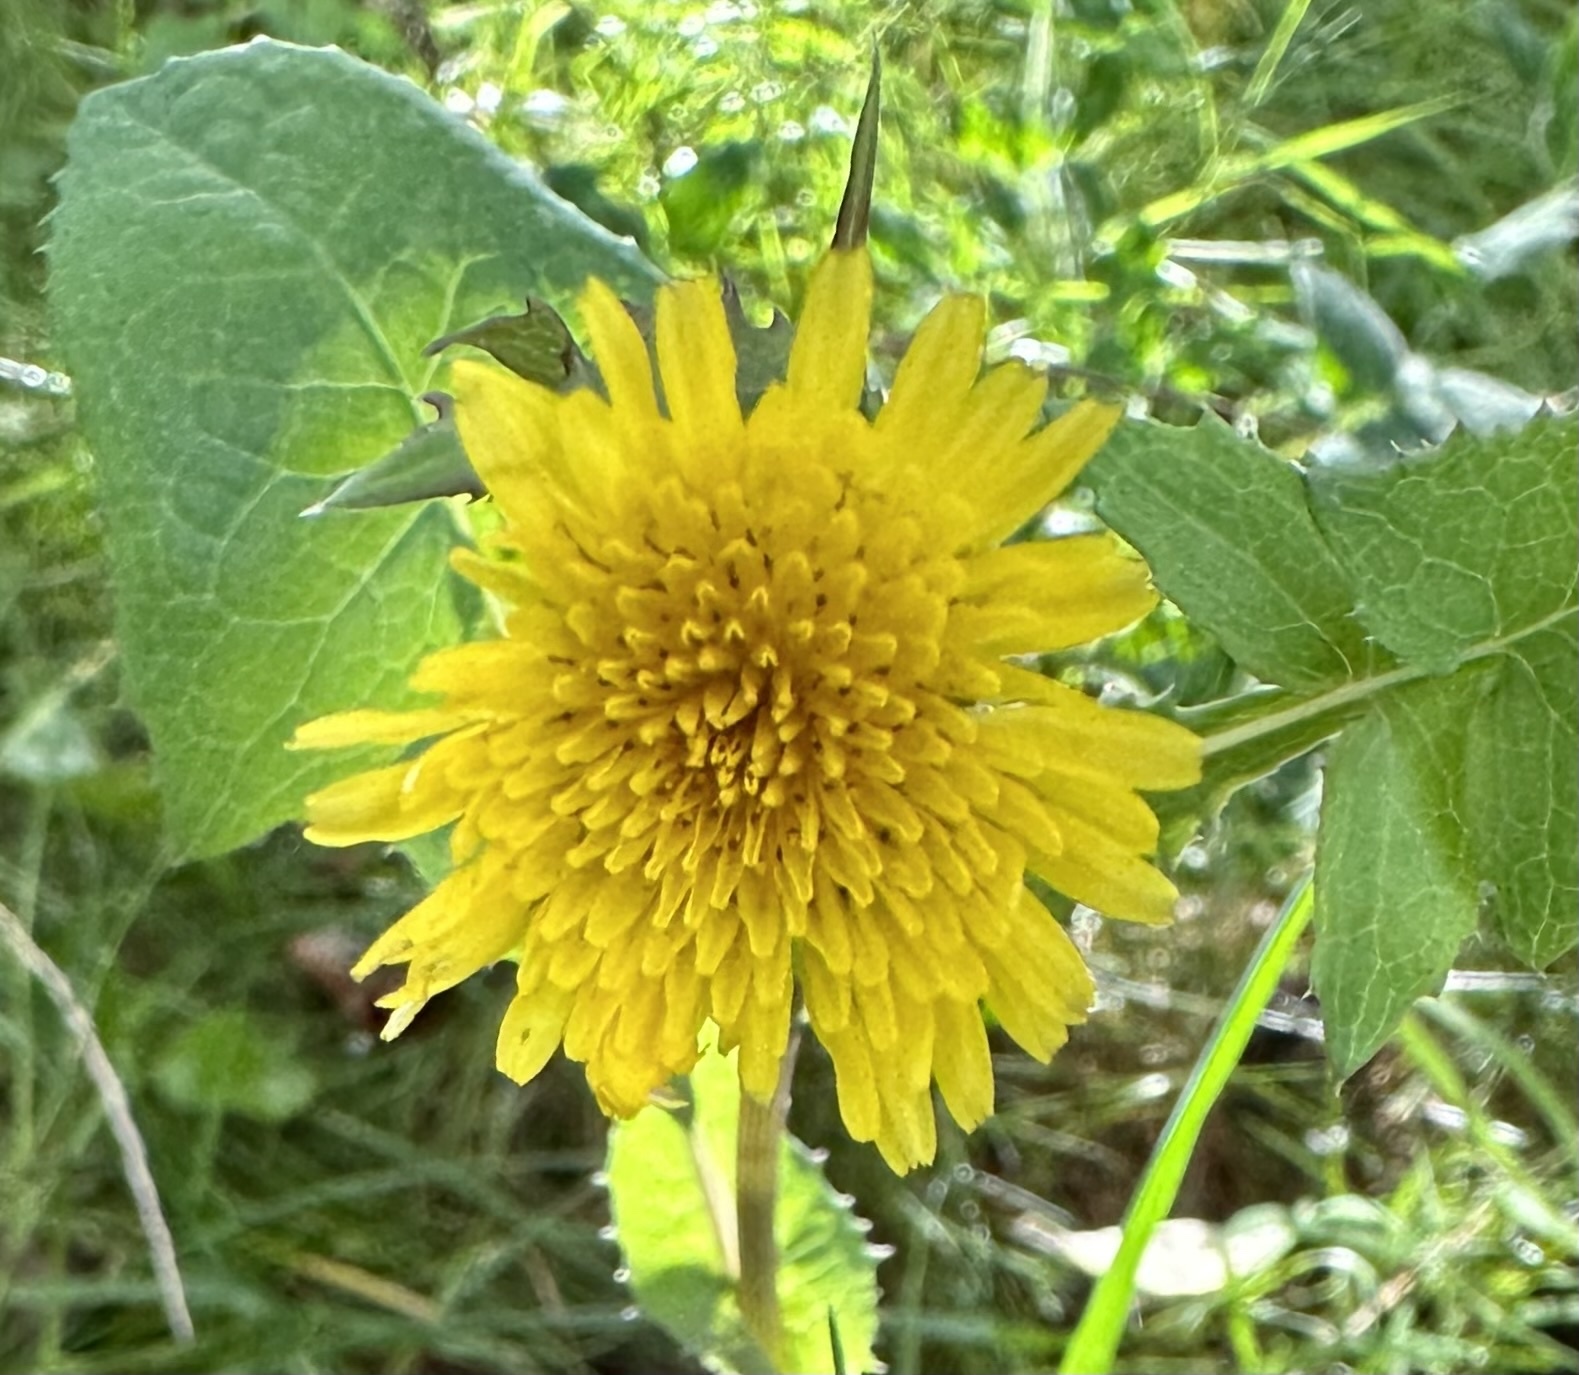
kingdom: Plantae
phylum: Tracheophyta
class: Magnoliopsida
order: Asterales
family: Asteraceae
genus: Sonchus
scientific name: Sonchus oleraceus
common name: Common sowthistle
